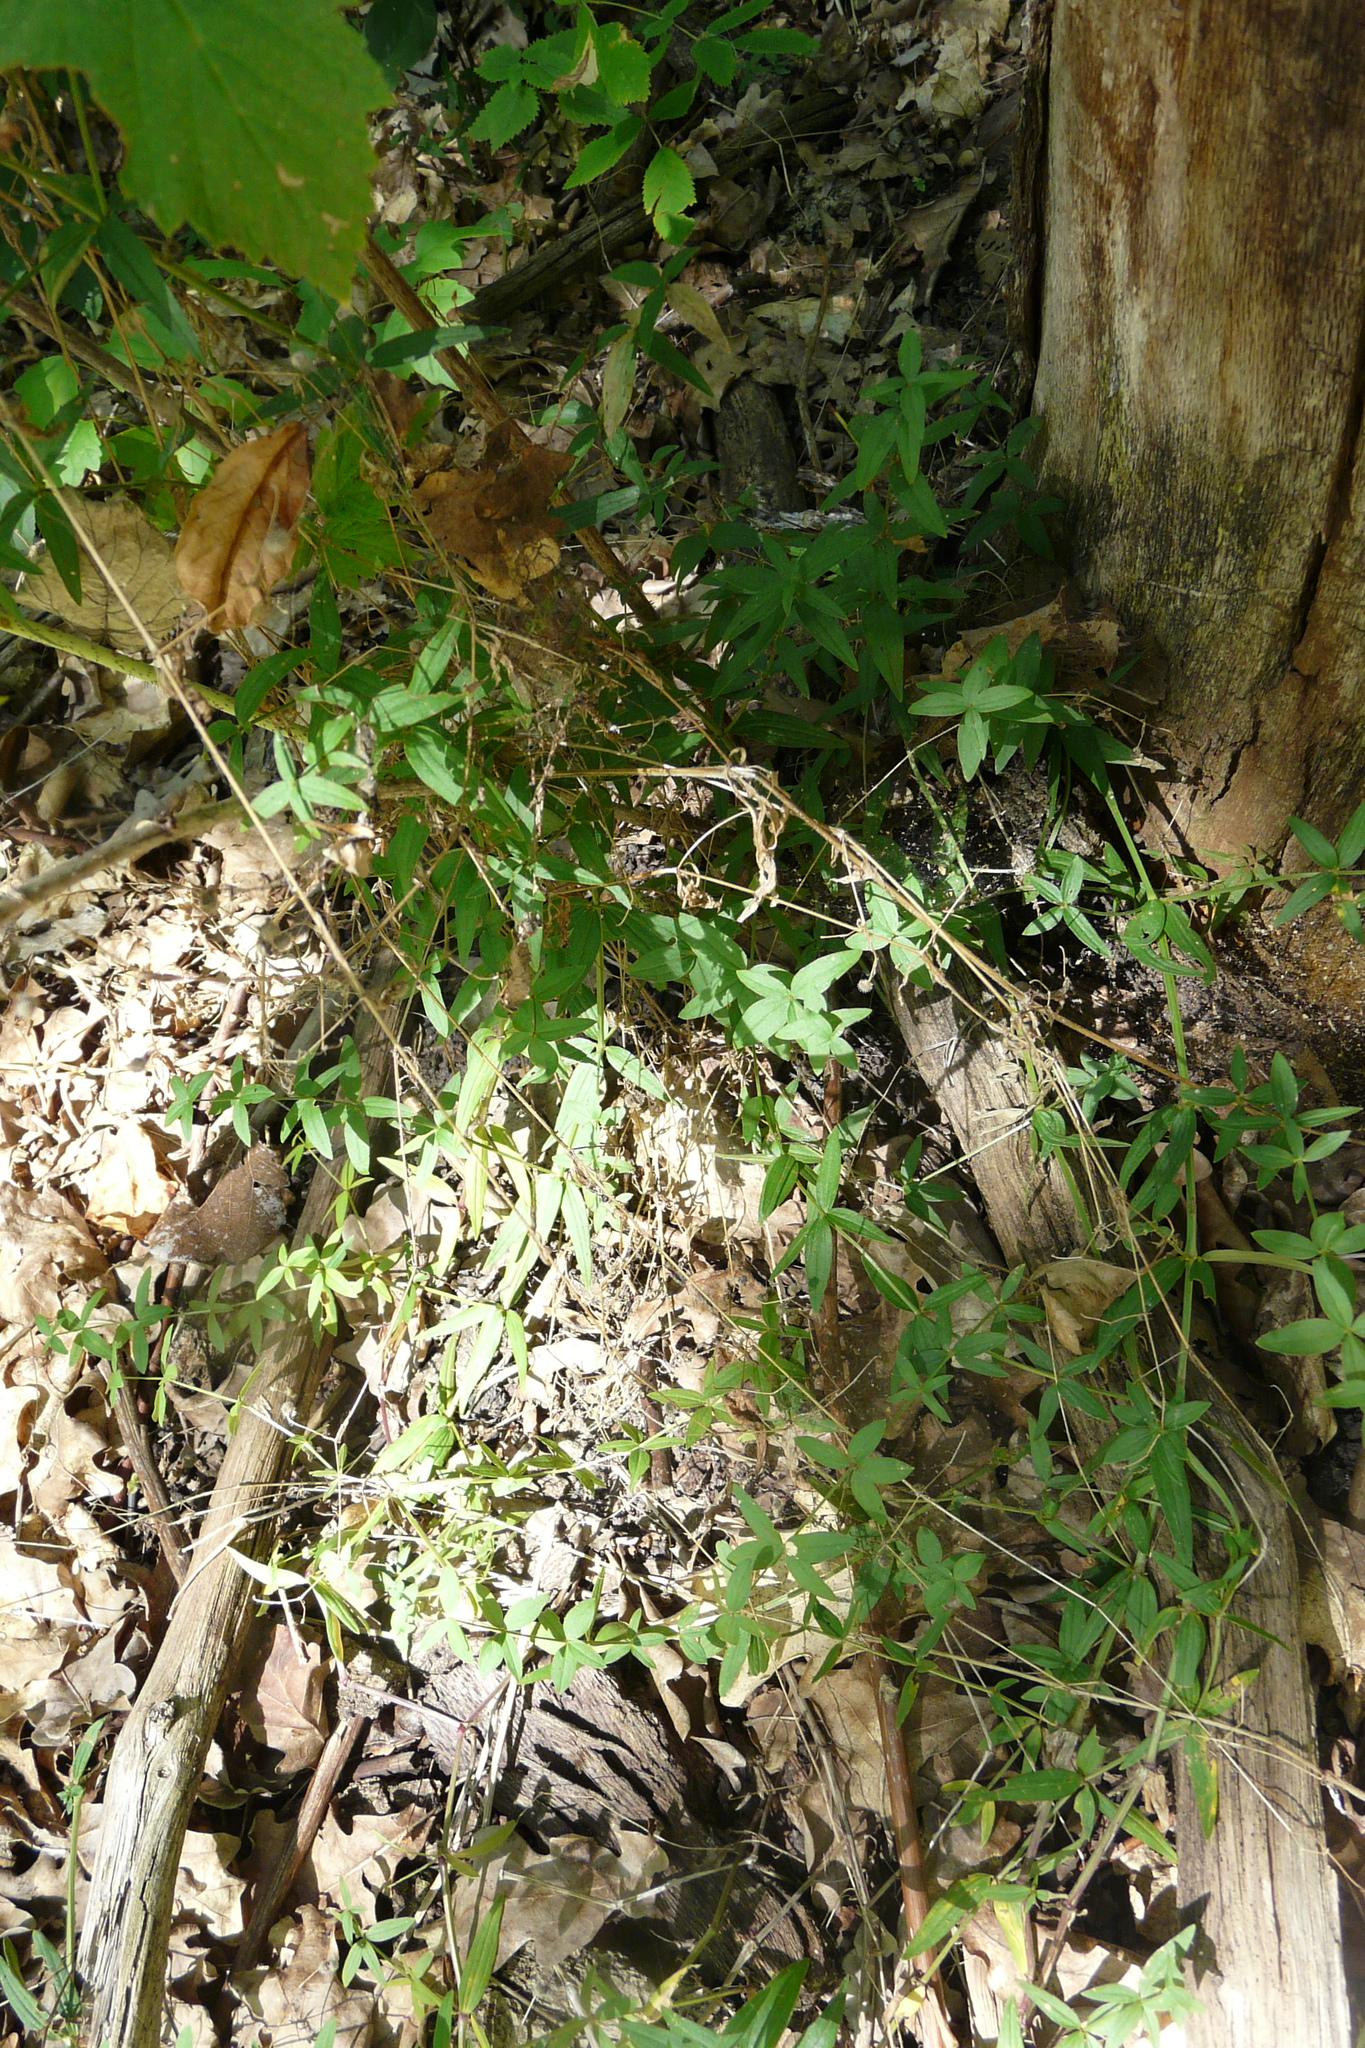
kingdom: Plantae
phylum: Tracheophyta
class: Magnoliopsida
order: Gentianales
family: Rubiaceae
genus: Galium
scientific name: Galium boreale
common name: Northern bedstraw
